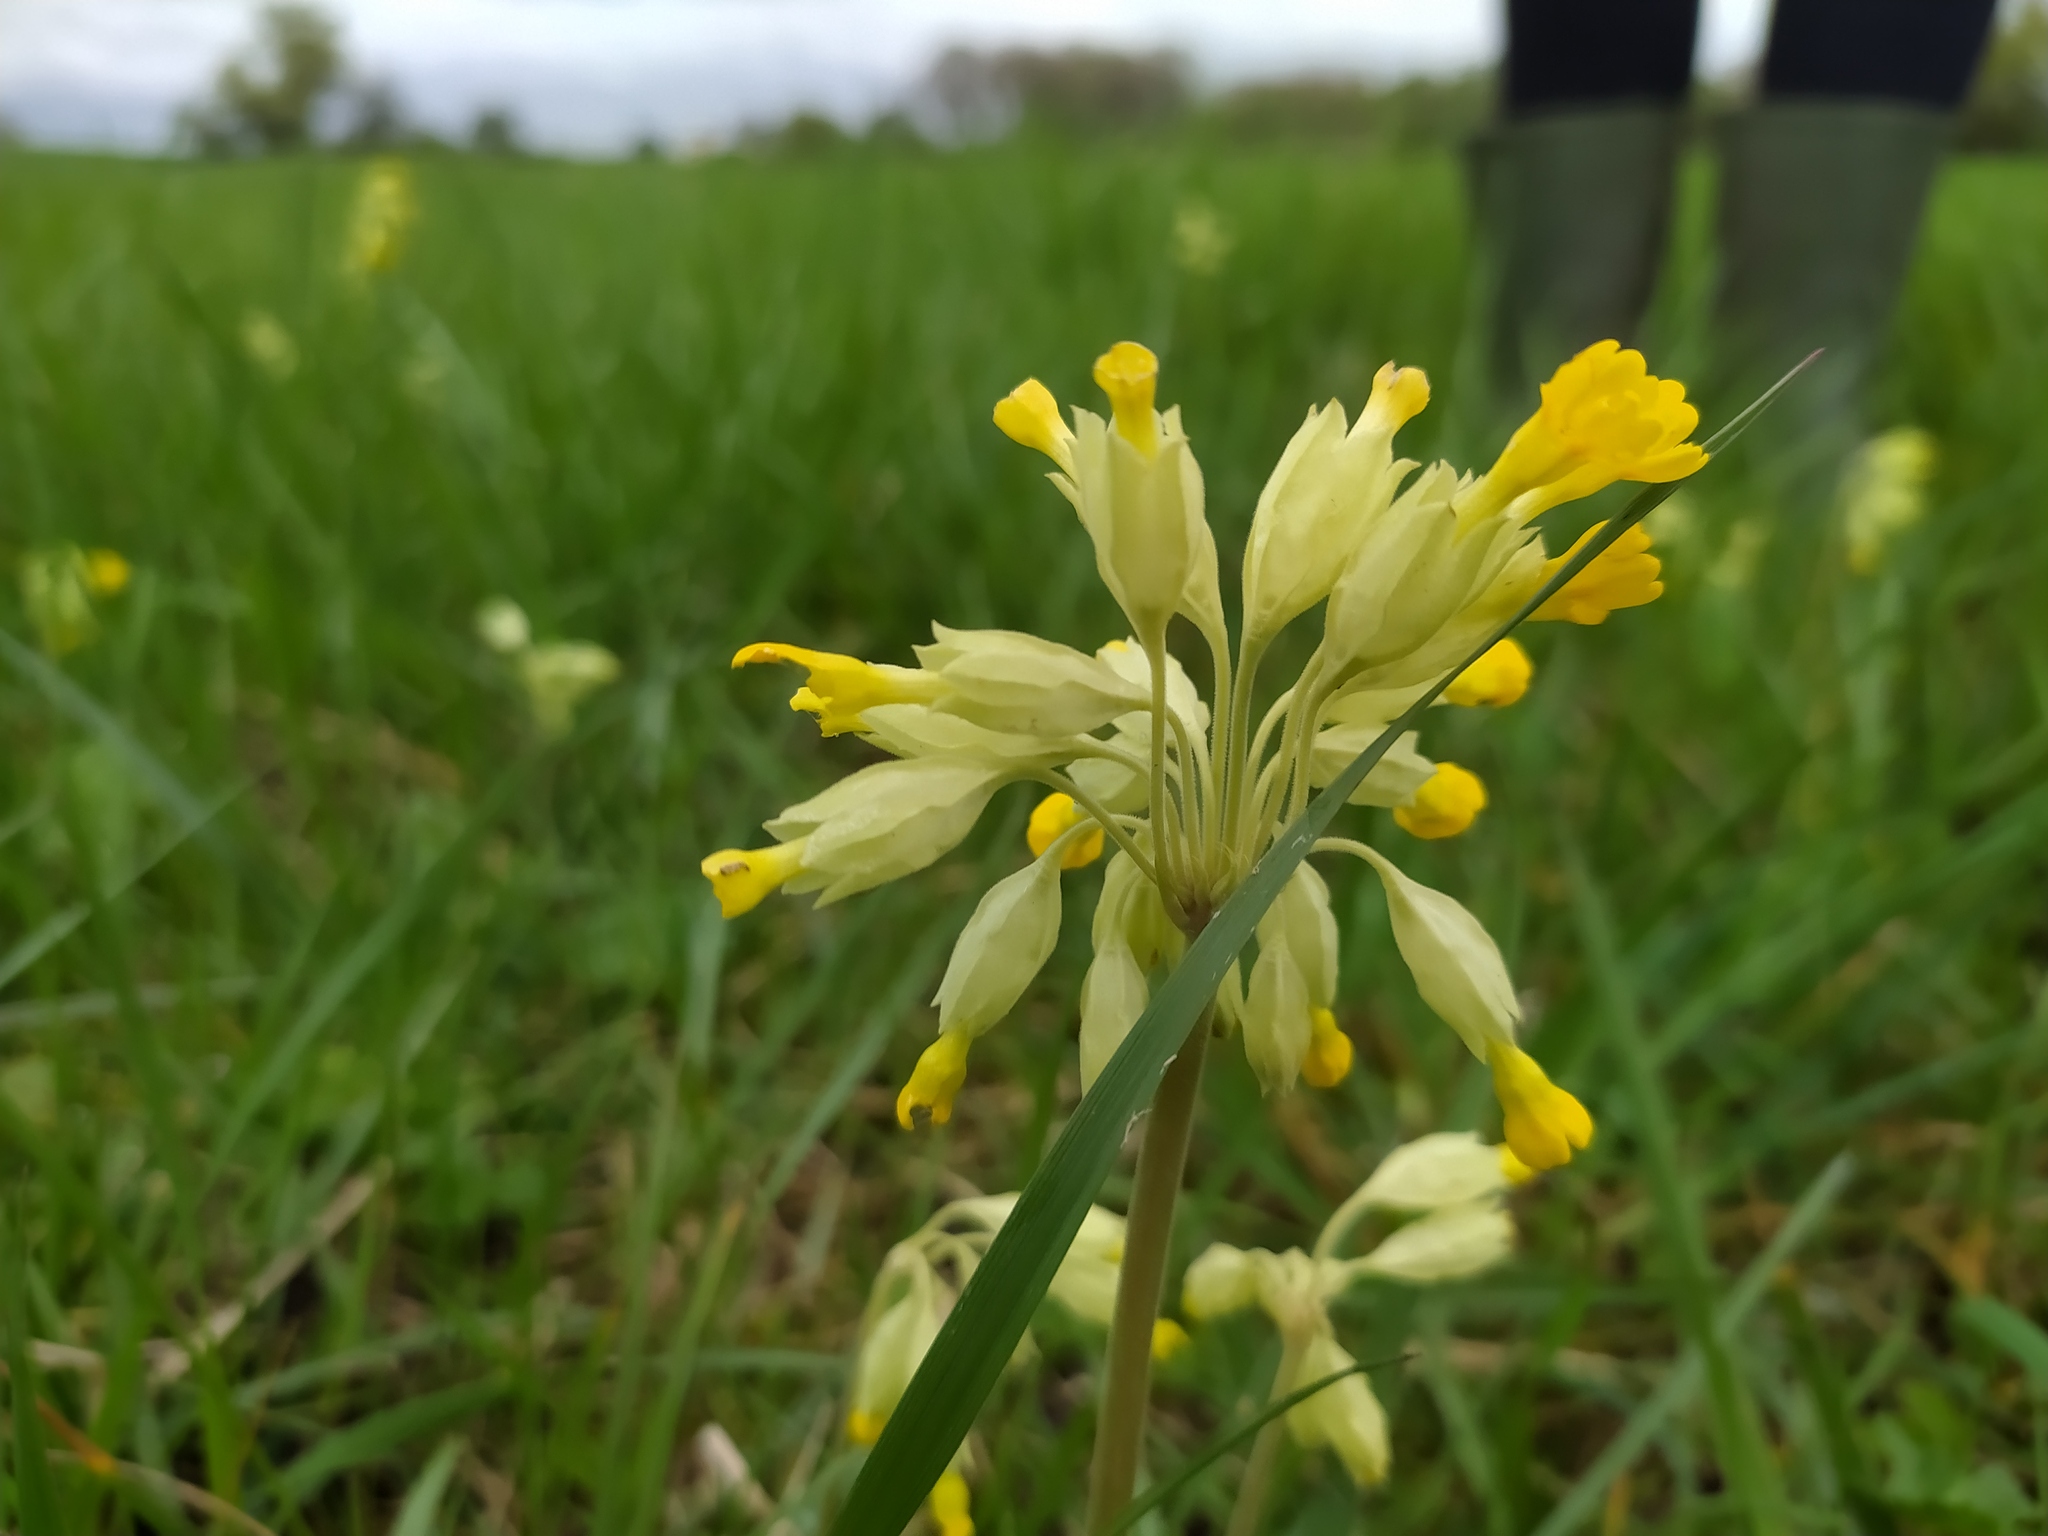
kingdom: Plantae
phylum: Tracheophyta
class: Magnoliopsida
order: Ericales
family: Primulaceae
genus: Primula
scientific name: Primula veris
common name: Cowslip
